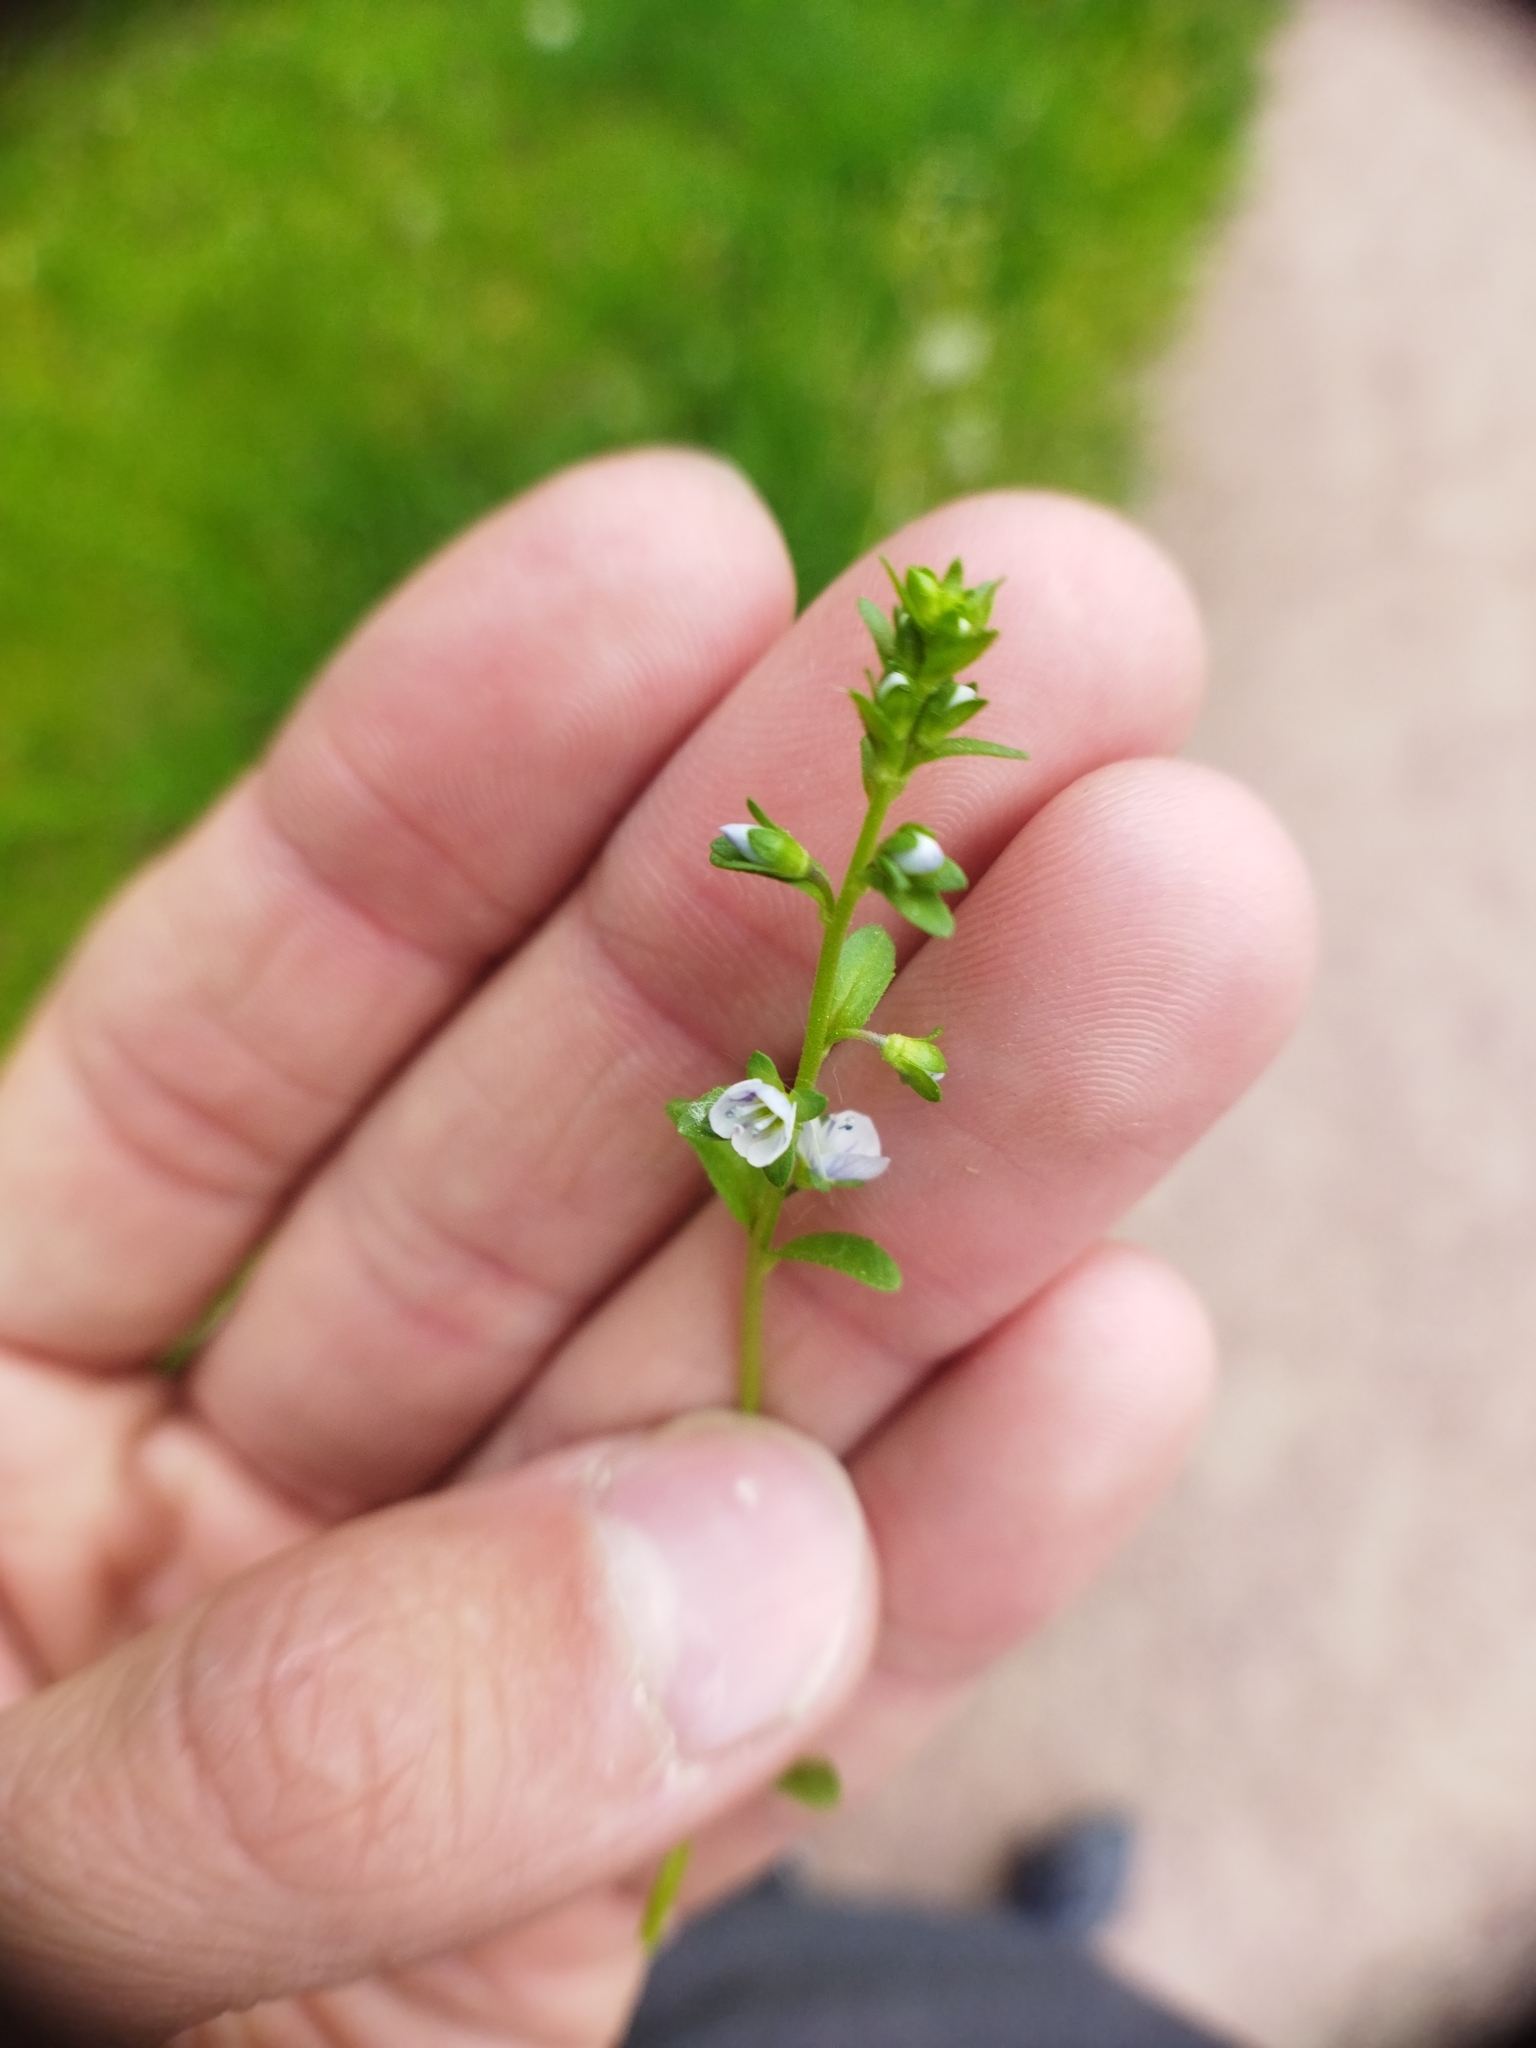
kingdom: Plantae
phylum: Tracheophyta
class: Magnoliopsida
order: Lamiales
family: Plantaginaceae
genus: Veronica
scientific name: Veronica serpyllifolia
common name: Thyme-leaved speedwell
